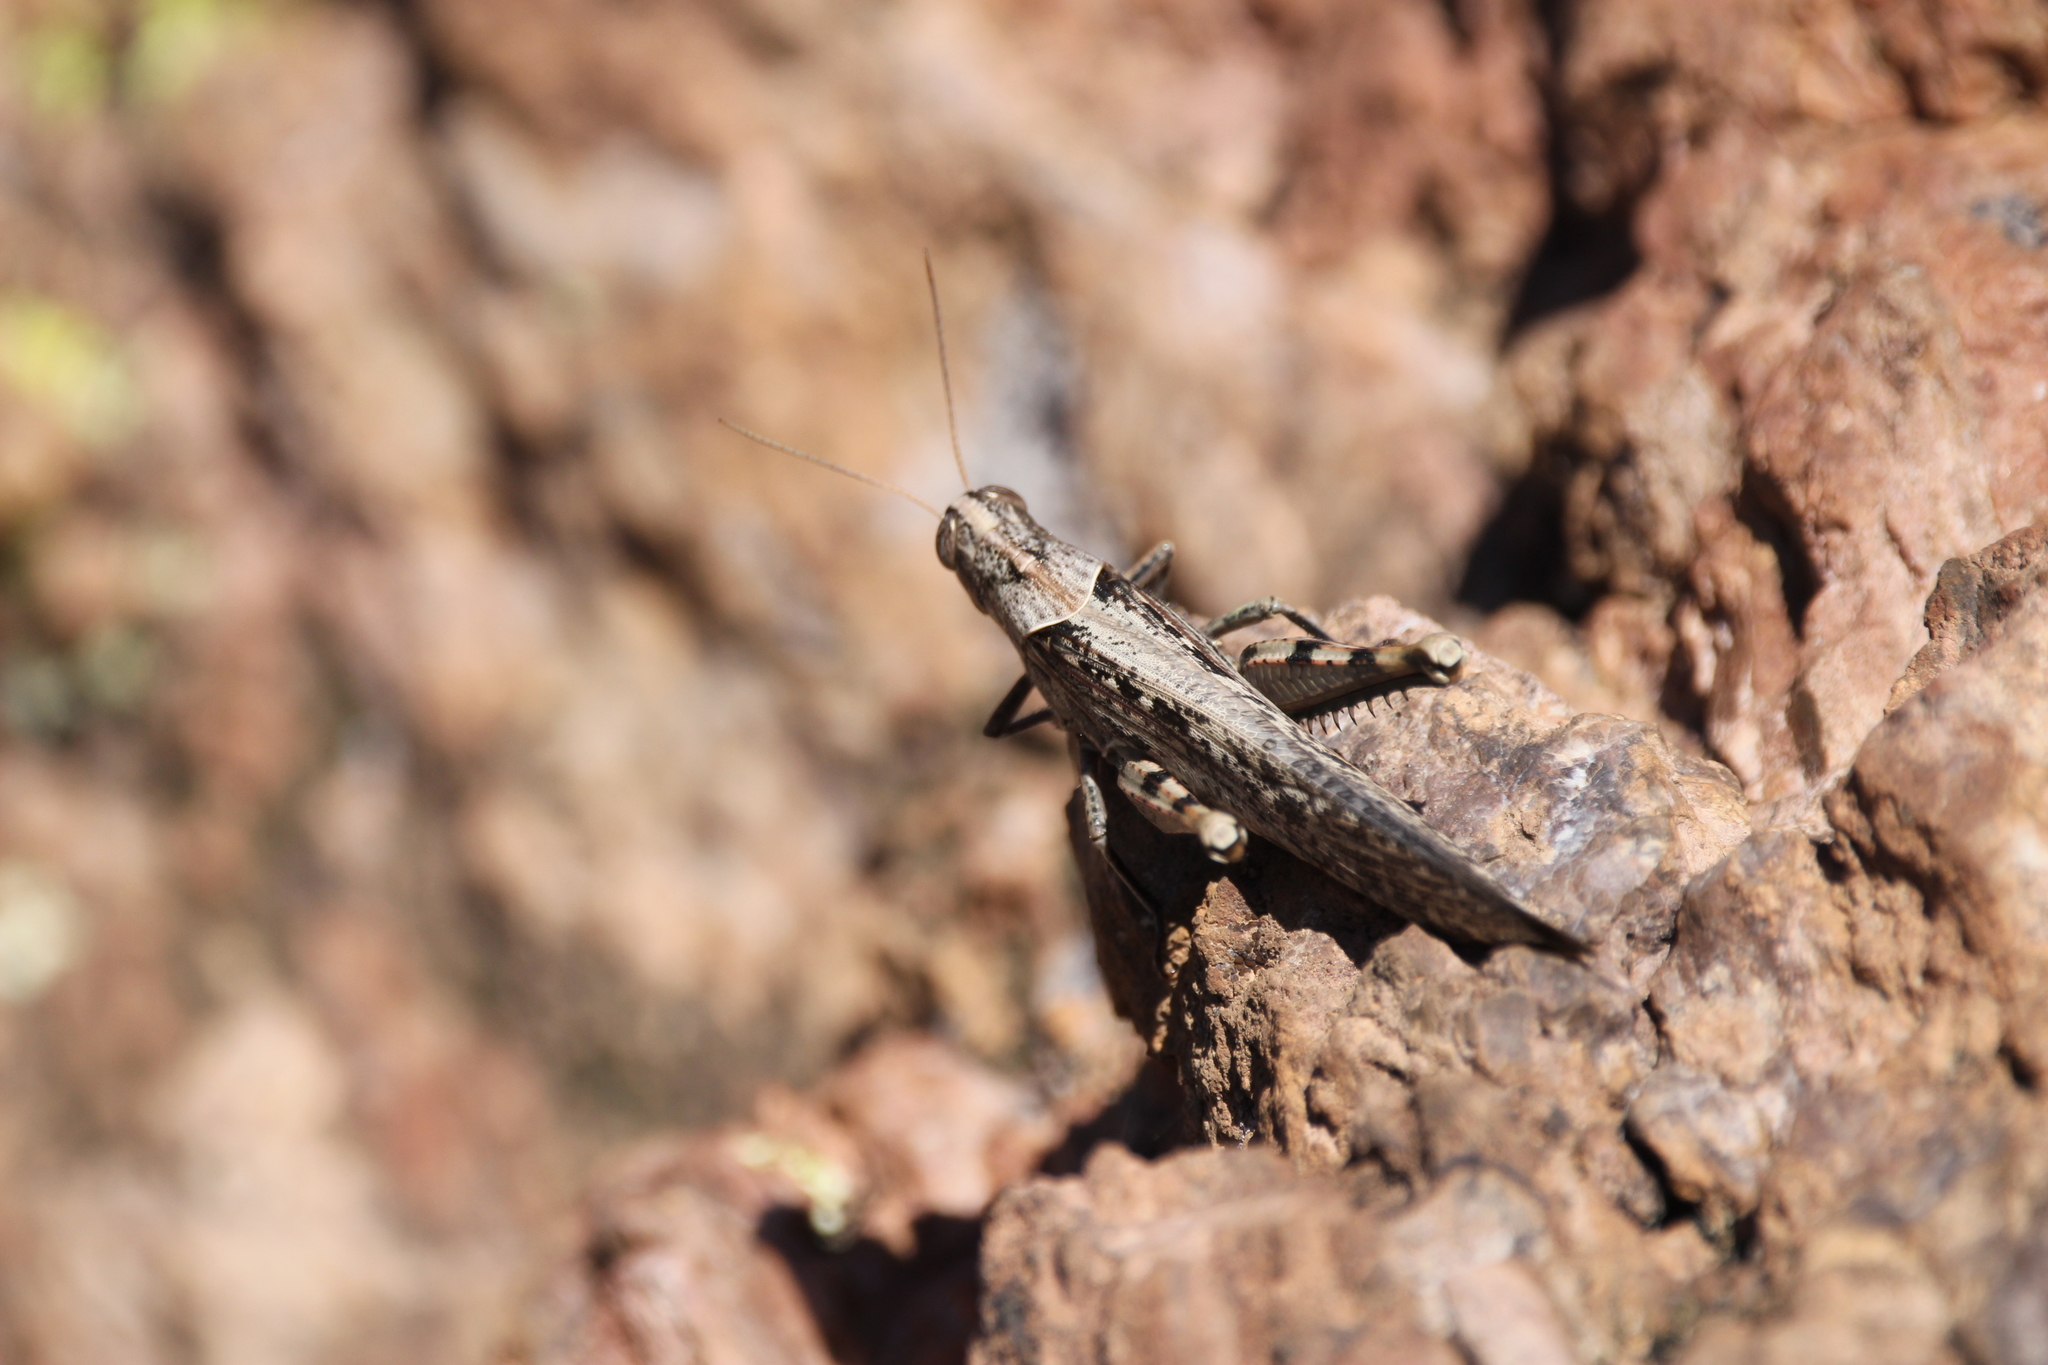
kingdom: Animalia
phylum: Arthropoda
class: Insecta
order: Orthoptera
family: Acrididae
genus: Schistocerca
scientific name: Schistocerca nitens
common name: Vagrant grasshopper
